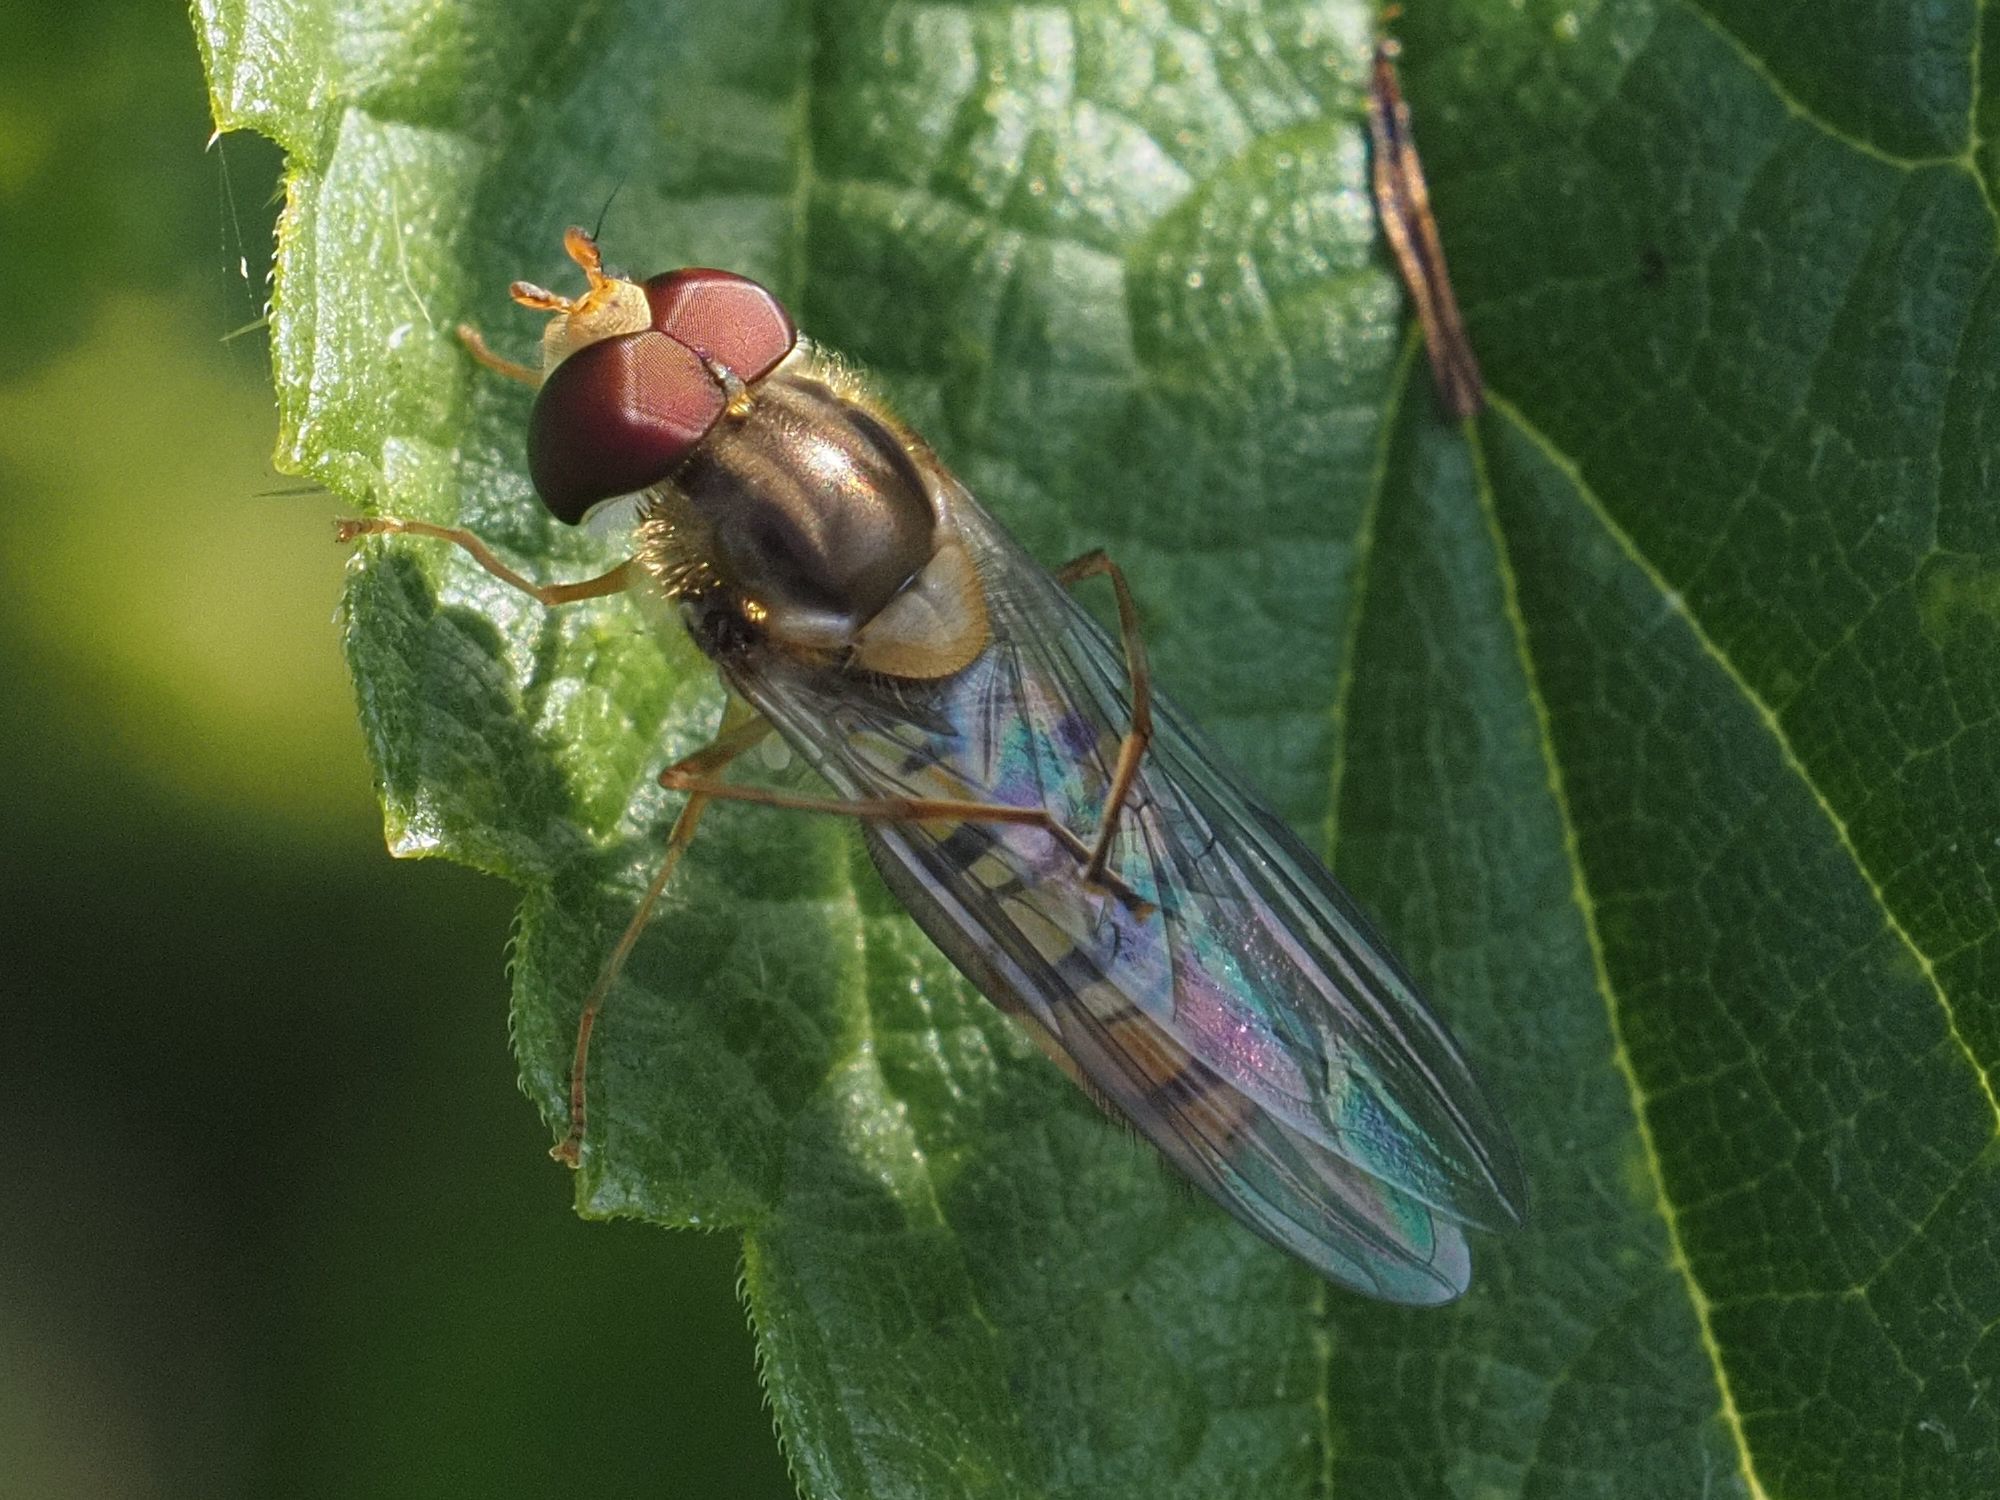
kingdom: Animalia
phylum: Arthropoda
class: Insecta
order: Diptera
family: Syrphidae
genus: Episyrphus
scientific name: Episyrphus balteatus
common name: Marmalade hoverfly
